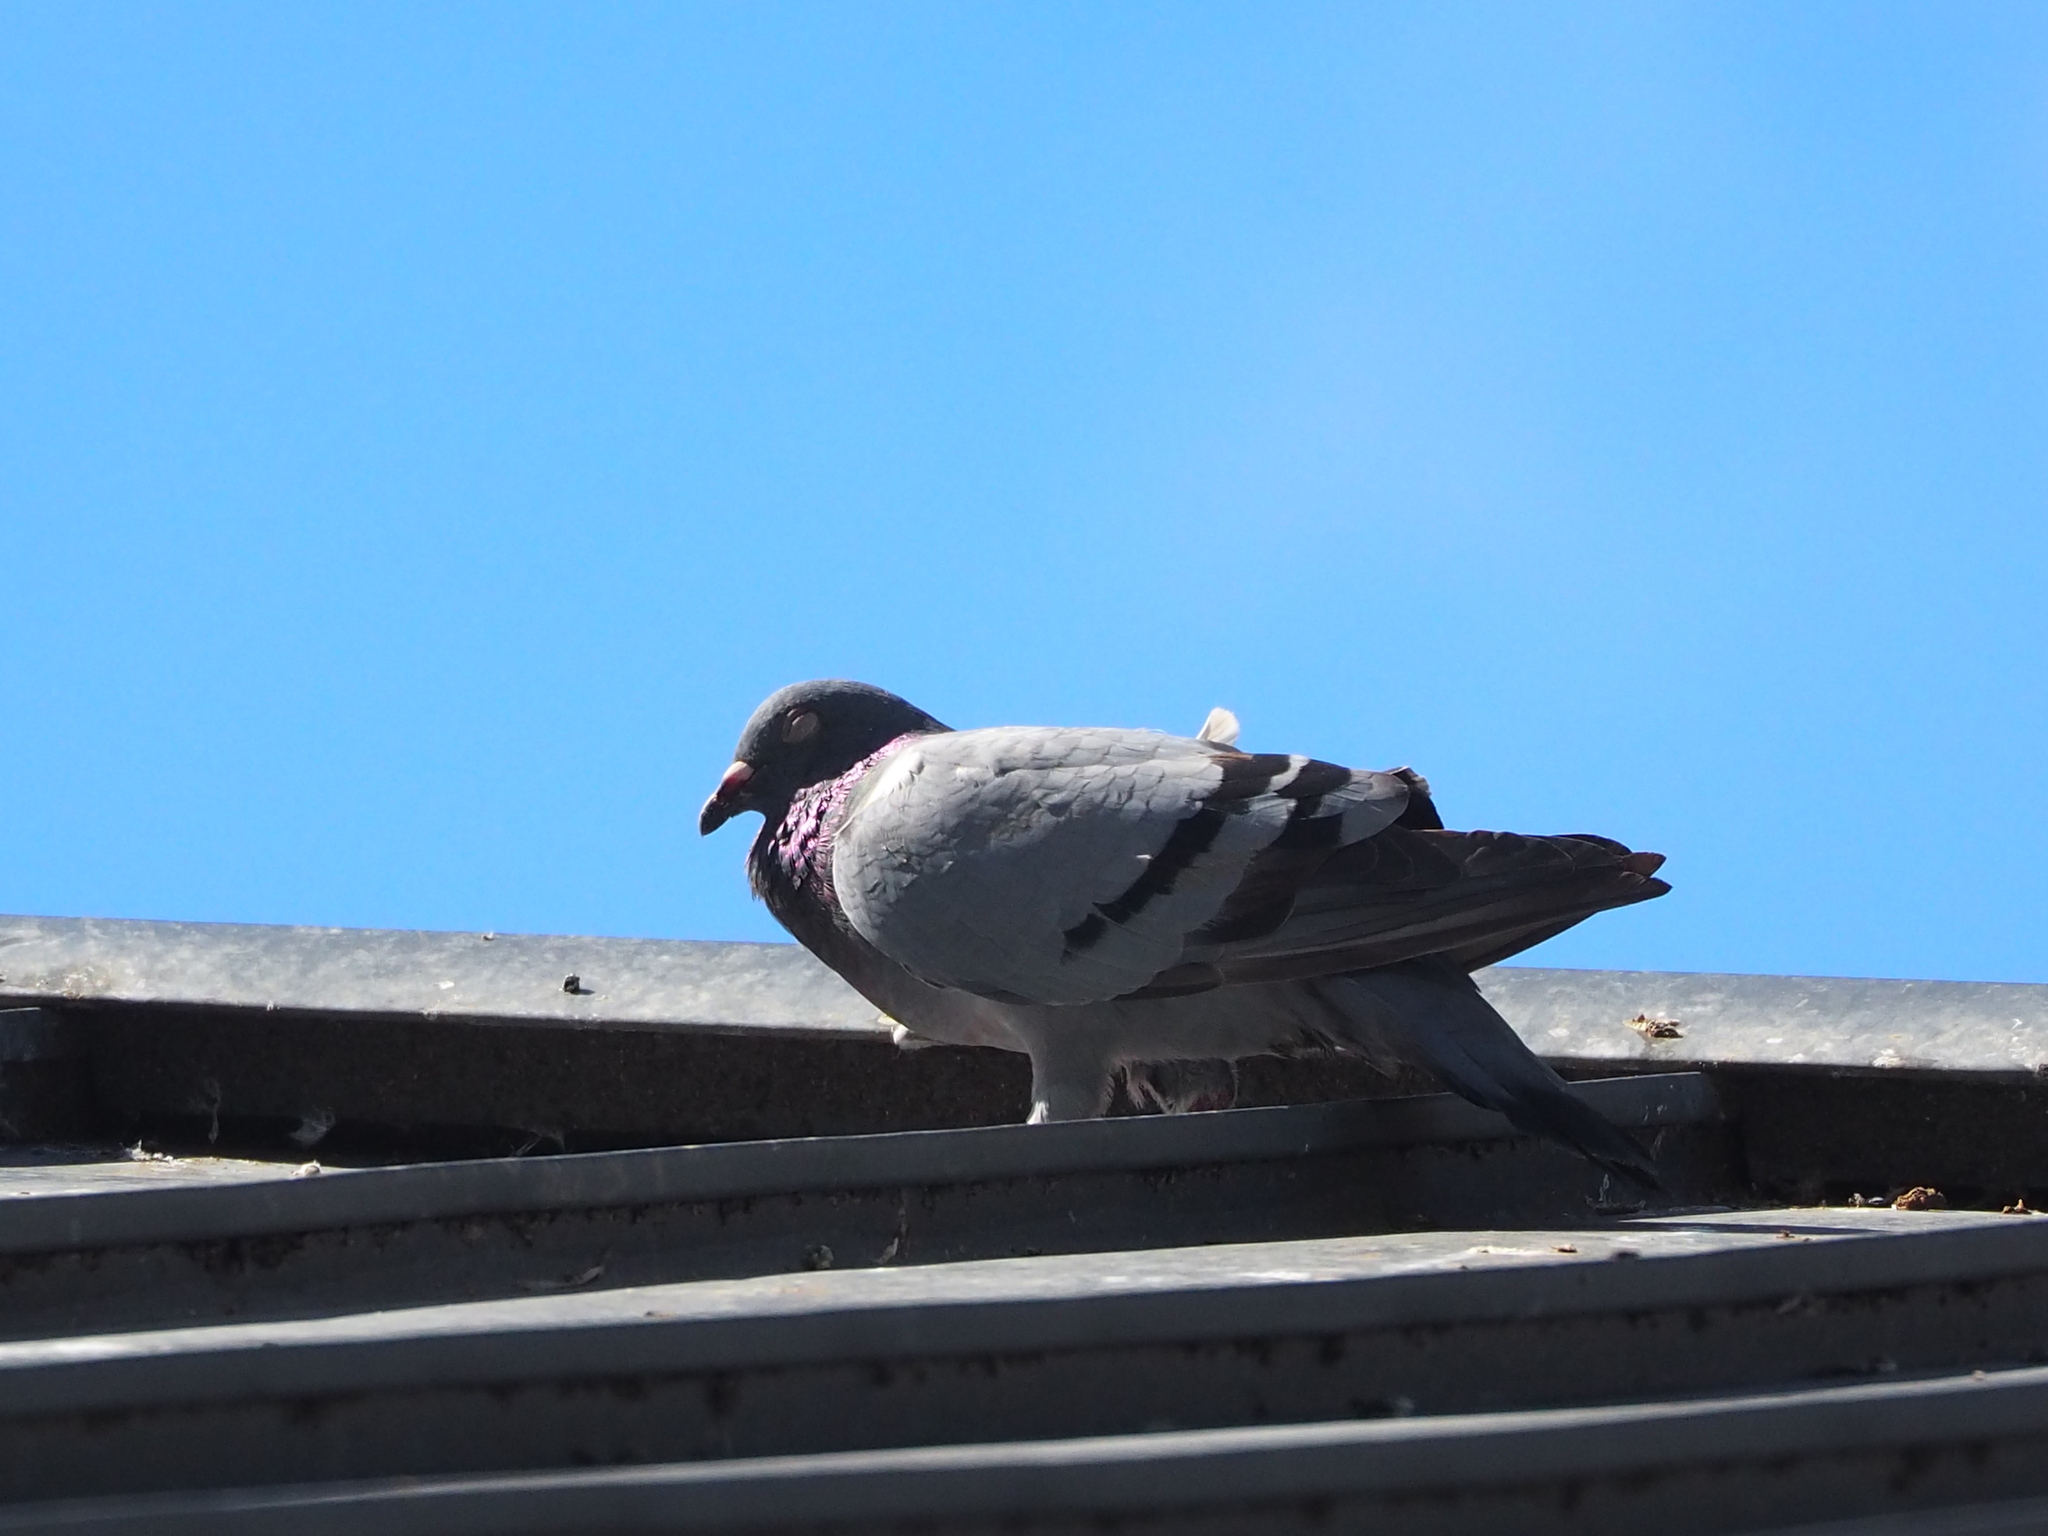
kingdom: Animalia
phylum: Chordata
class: Aves
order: Columbiformes
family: Columbidae
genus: Columba
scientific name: Columba livia
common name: Rock pigeon
